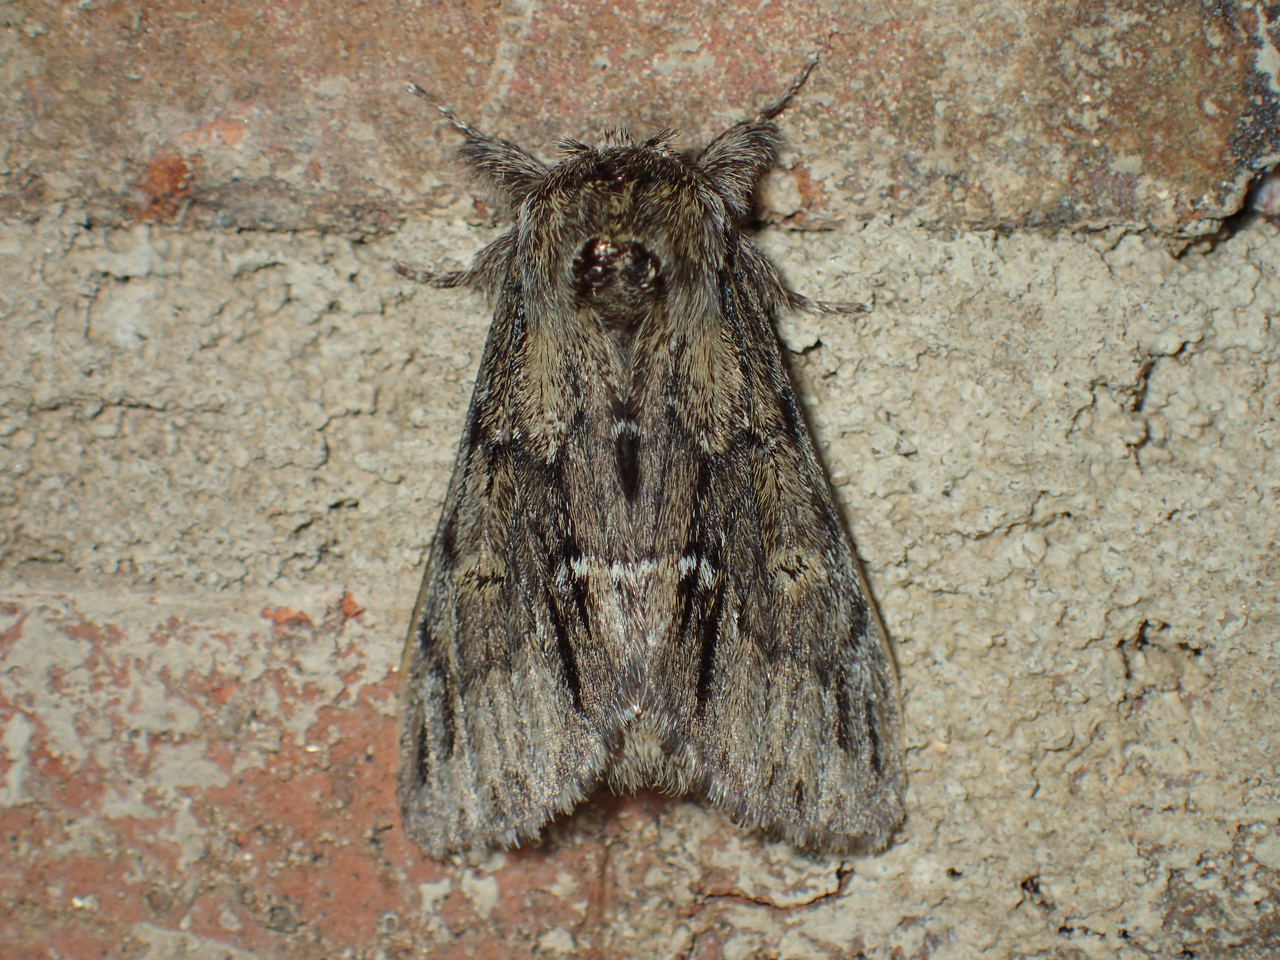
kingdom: Animalia
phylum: Arthropoda
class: Insecta
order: Lepidoptera
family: Notodontidae
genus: Paraeschra
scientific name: Paraeschra georgica
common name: Georgian prominent
